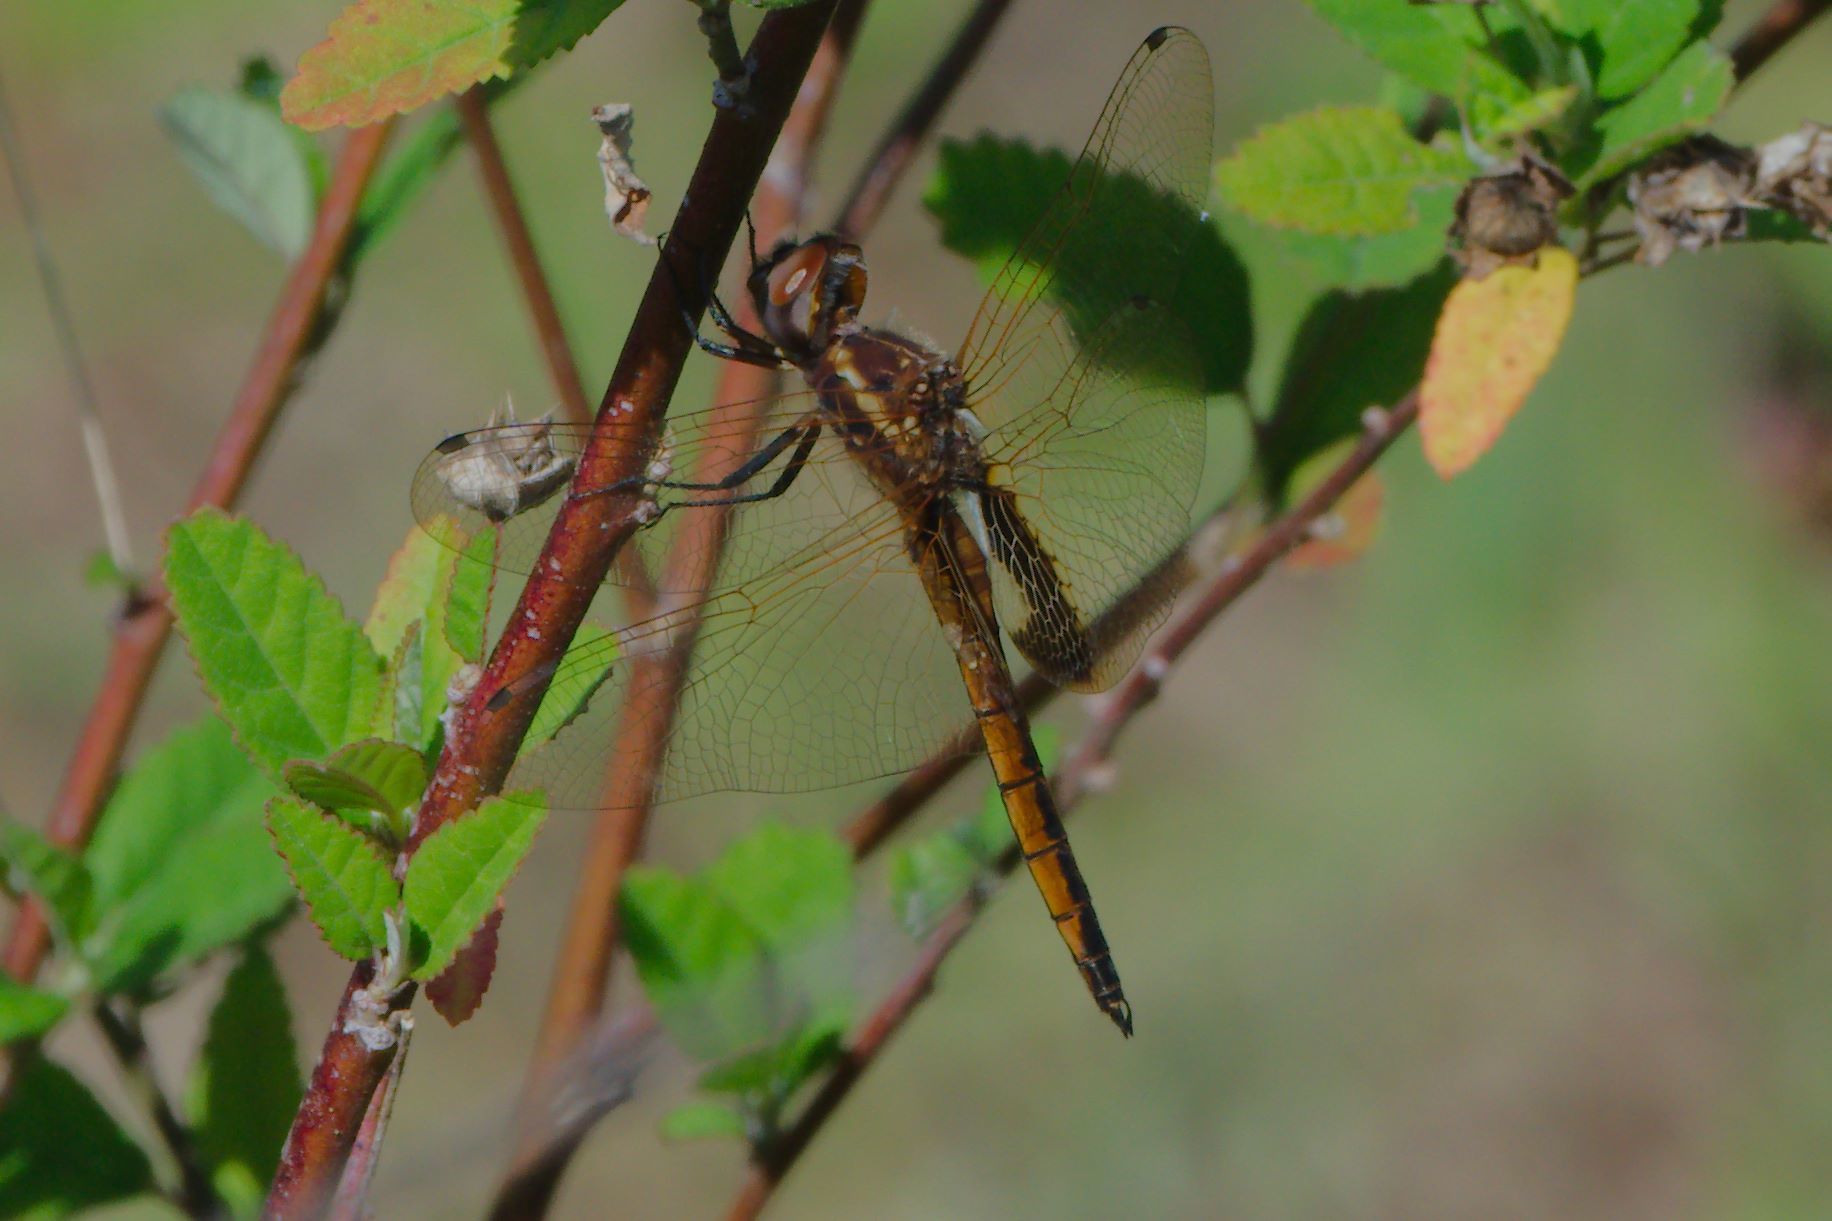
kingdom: Animalia
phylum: Arthropoda
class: Insecta
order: Odonata
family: Libellulidae
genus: Miathyria
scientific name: Miathyria marcella
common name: Hyacinth glider
